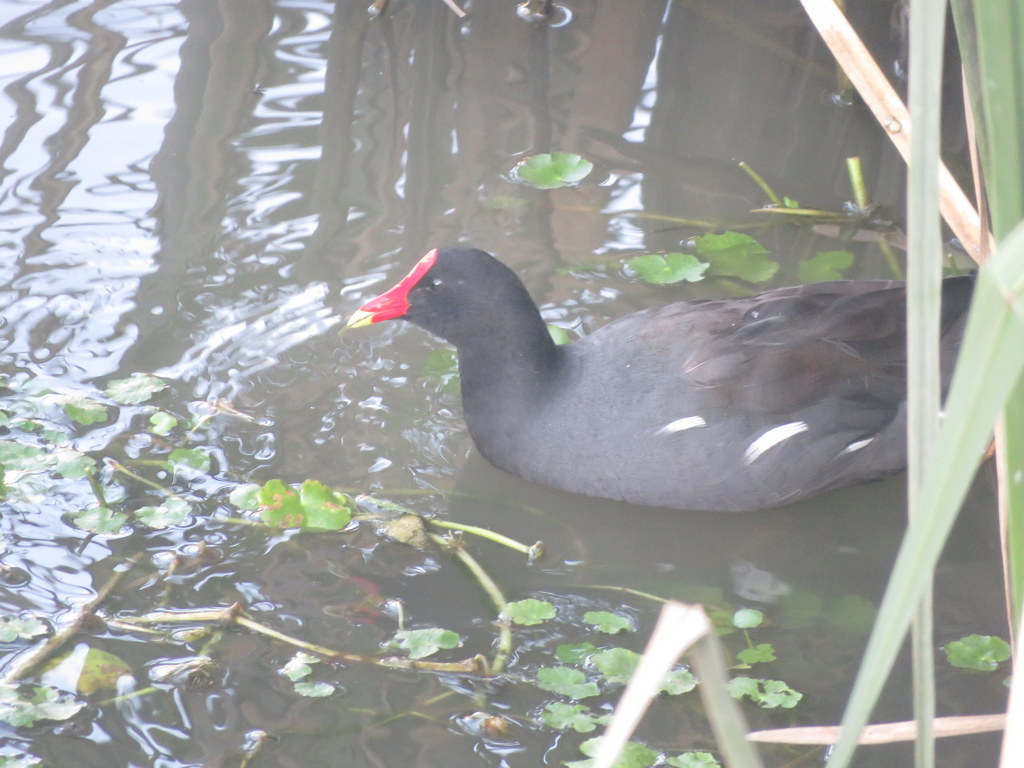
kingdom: Animalia
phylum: Chordata
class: Aves
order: Gruiformes
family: Rallidae
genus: Gallinula
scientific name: Gallinula chloropus
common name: Common moorhen
